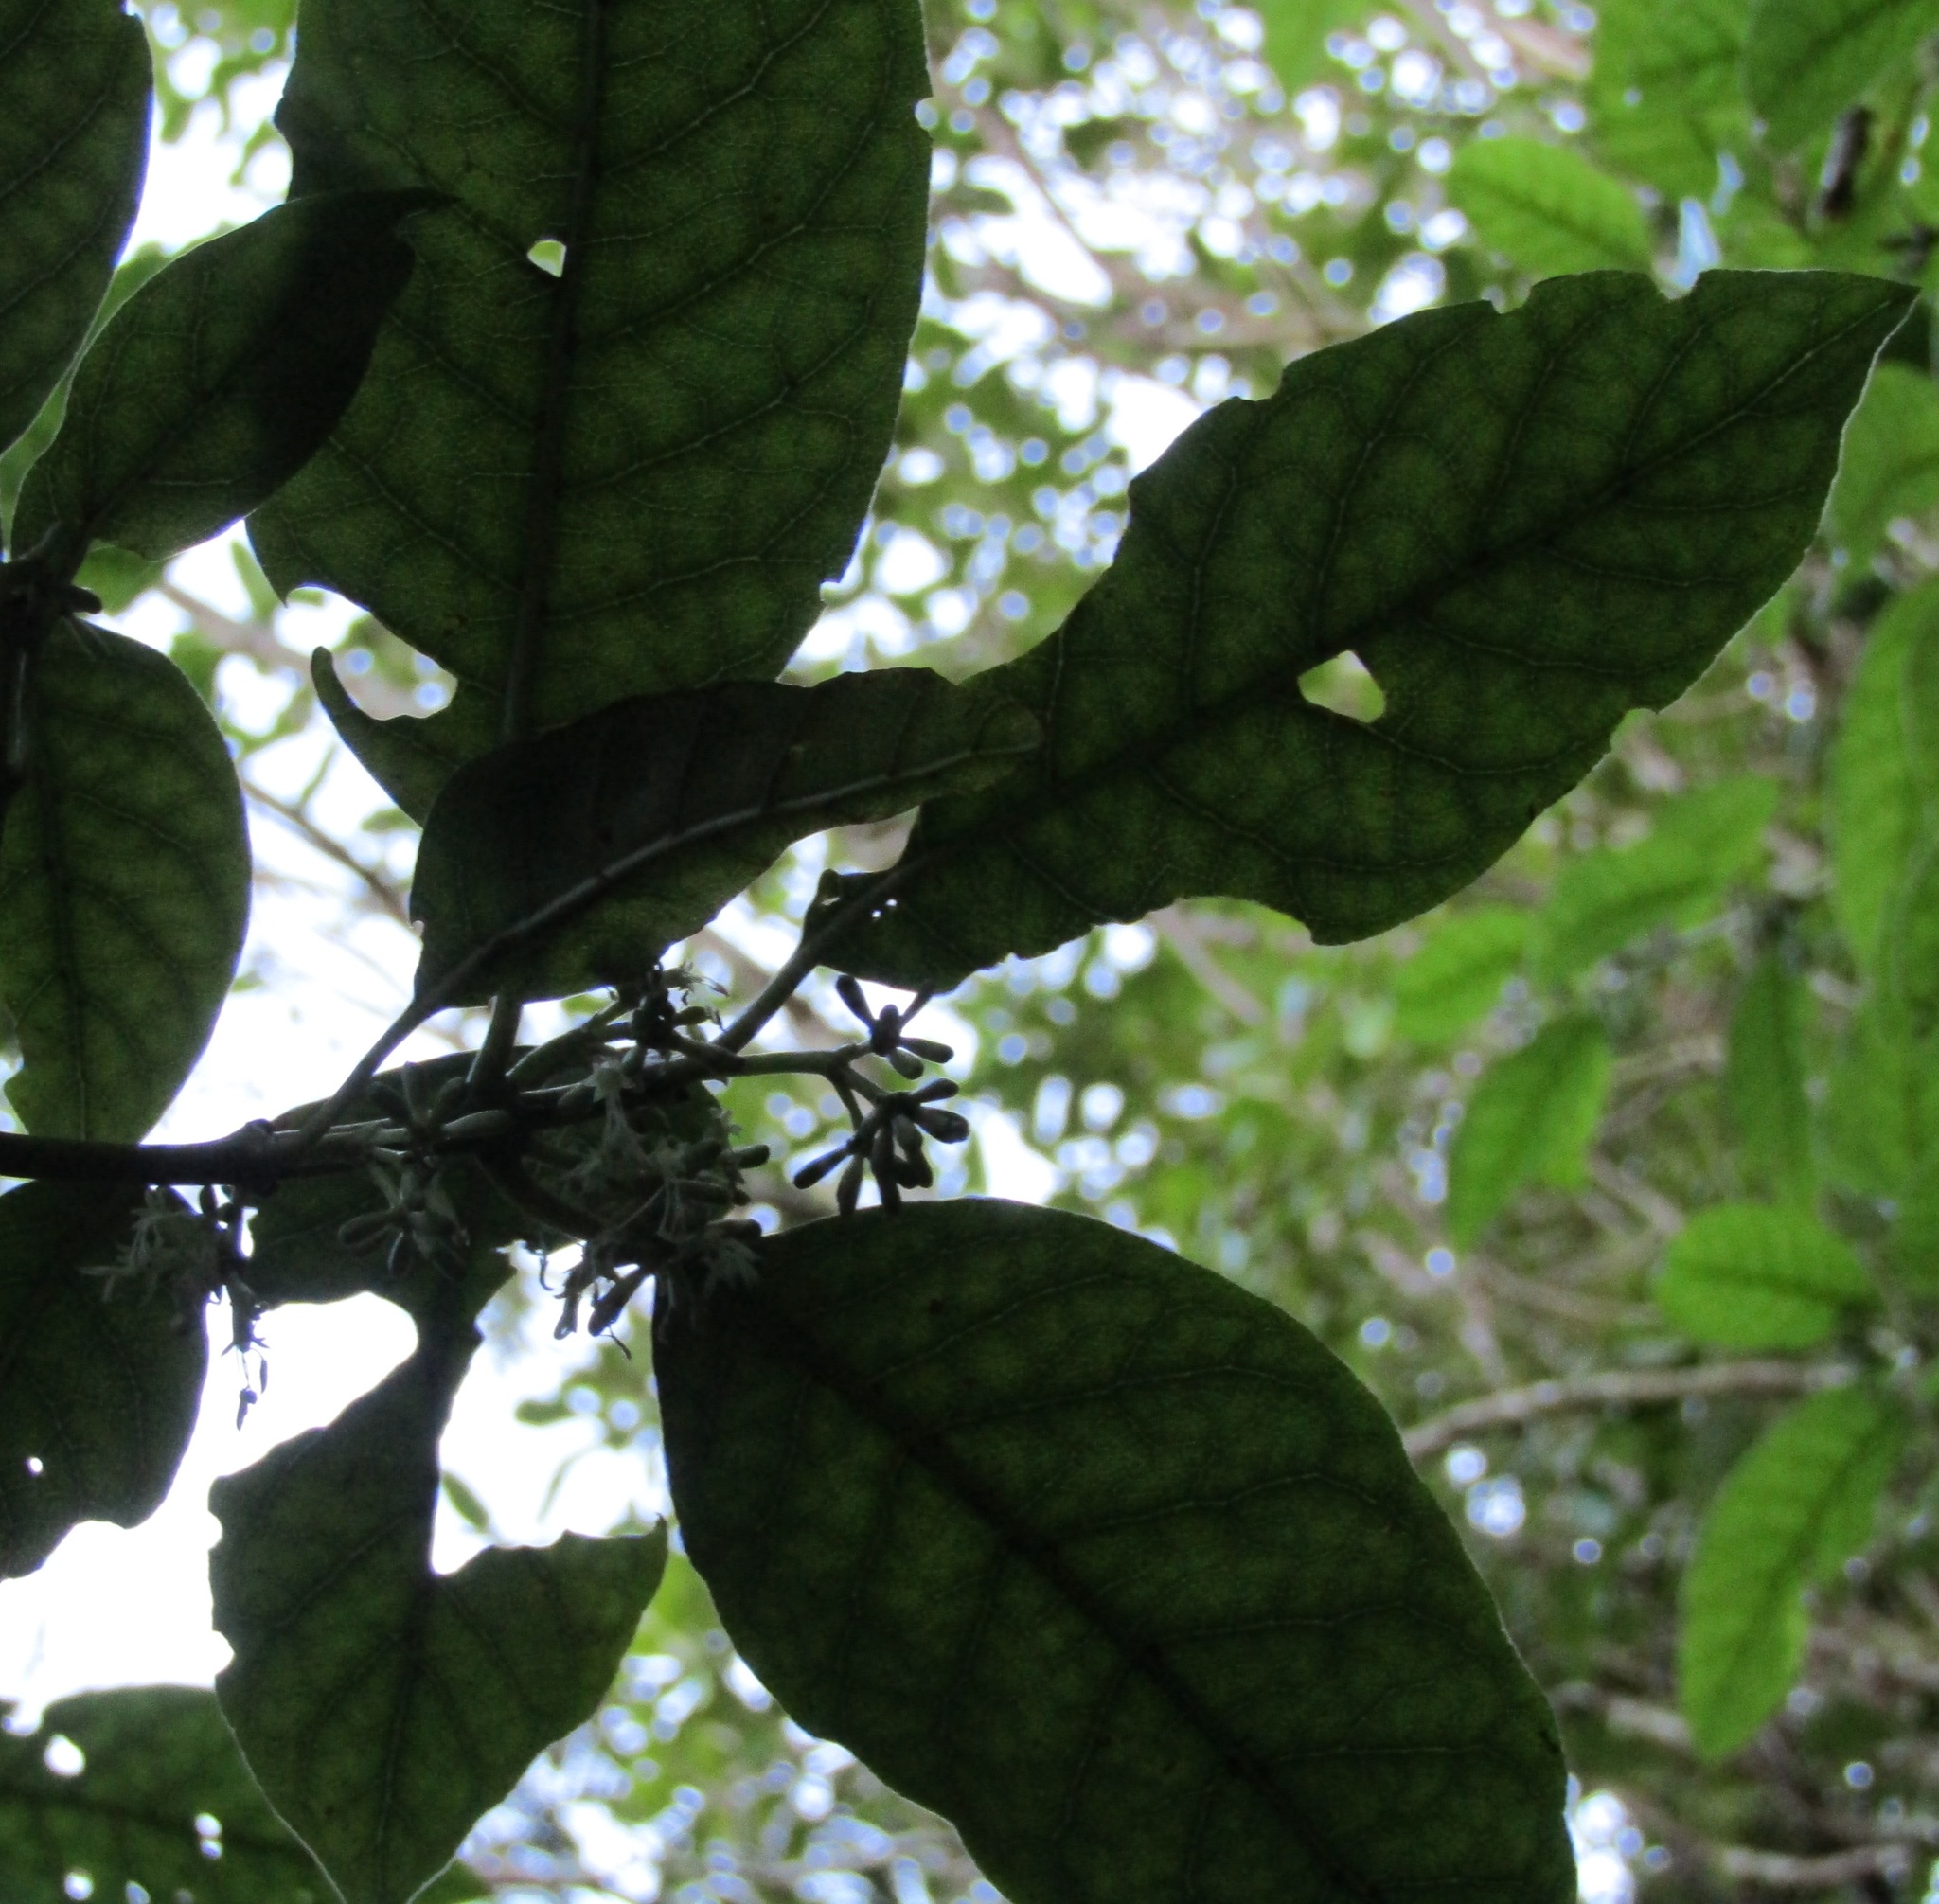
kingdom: Plantae
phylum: Tracheophyta
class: Magnoliopsida
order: Gentianales
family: Rubiaceae
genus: Coprosma
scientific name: Coprosma autumnalis
